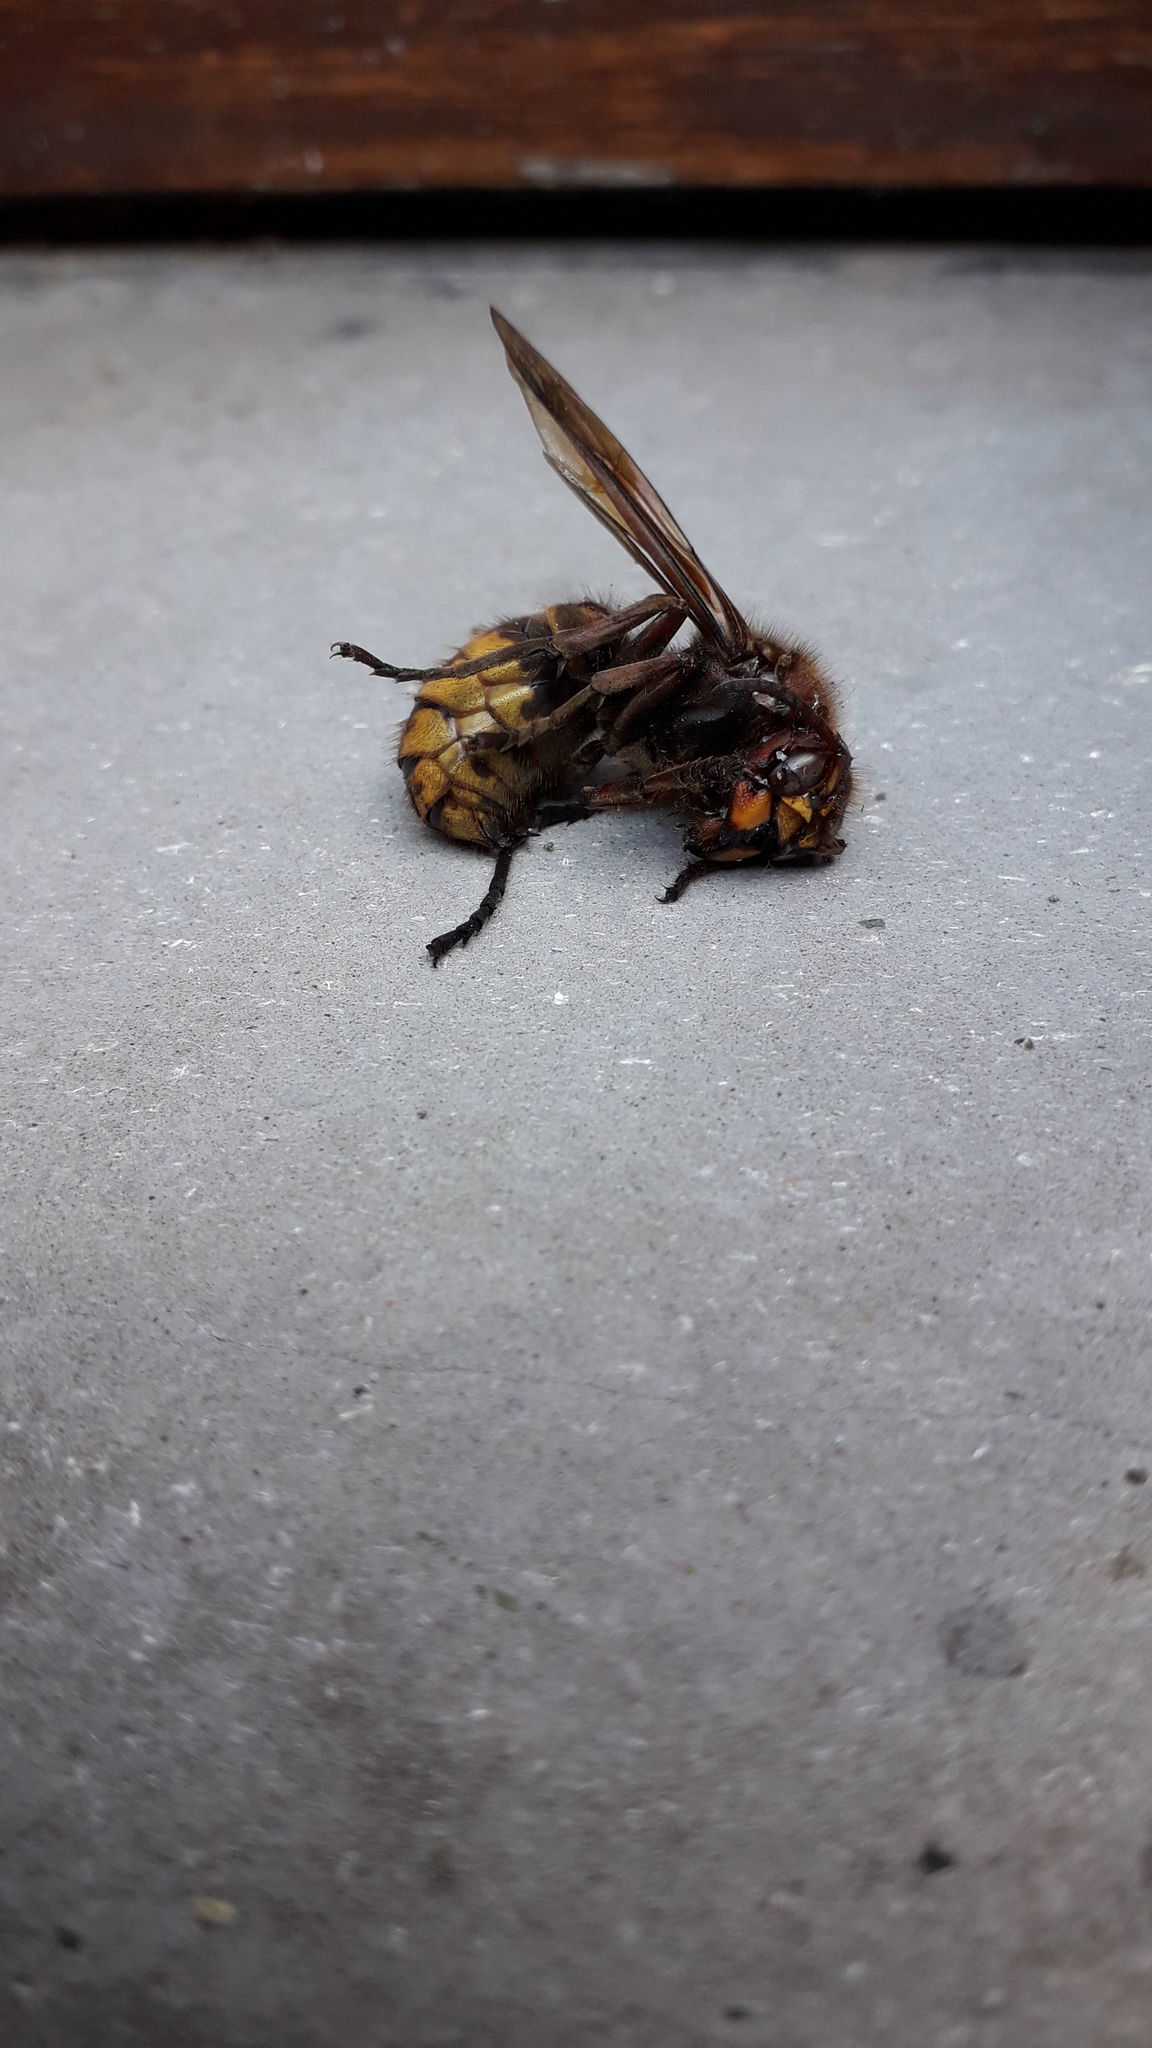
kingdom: Animalia
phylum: Arthropoda
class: Insecta
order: Hymenoptera
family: Vespidae
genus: Vespa
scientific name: Vespa crabro
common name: Hornet
